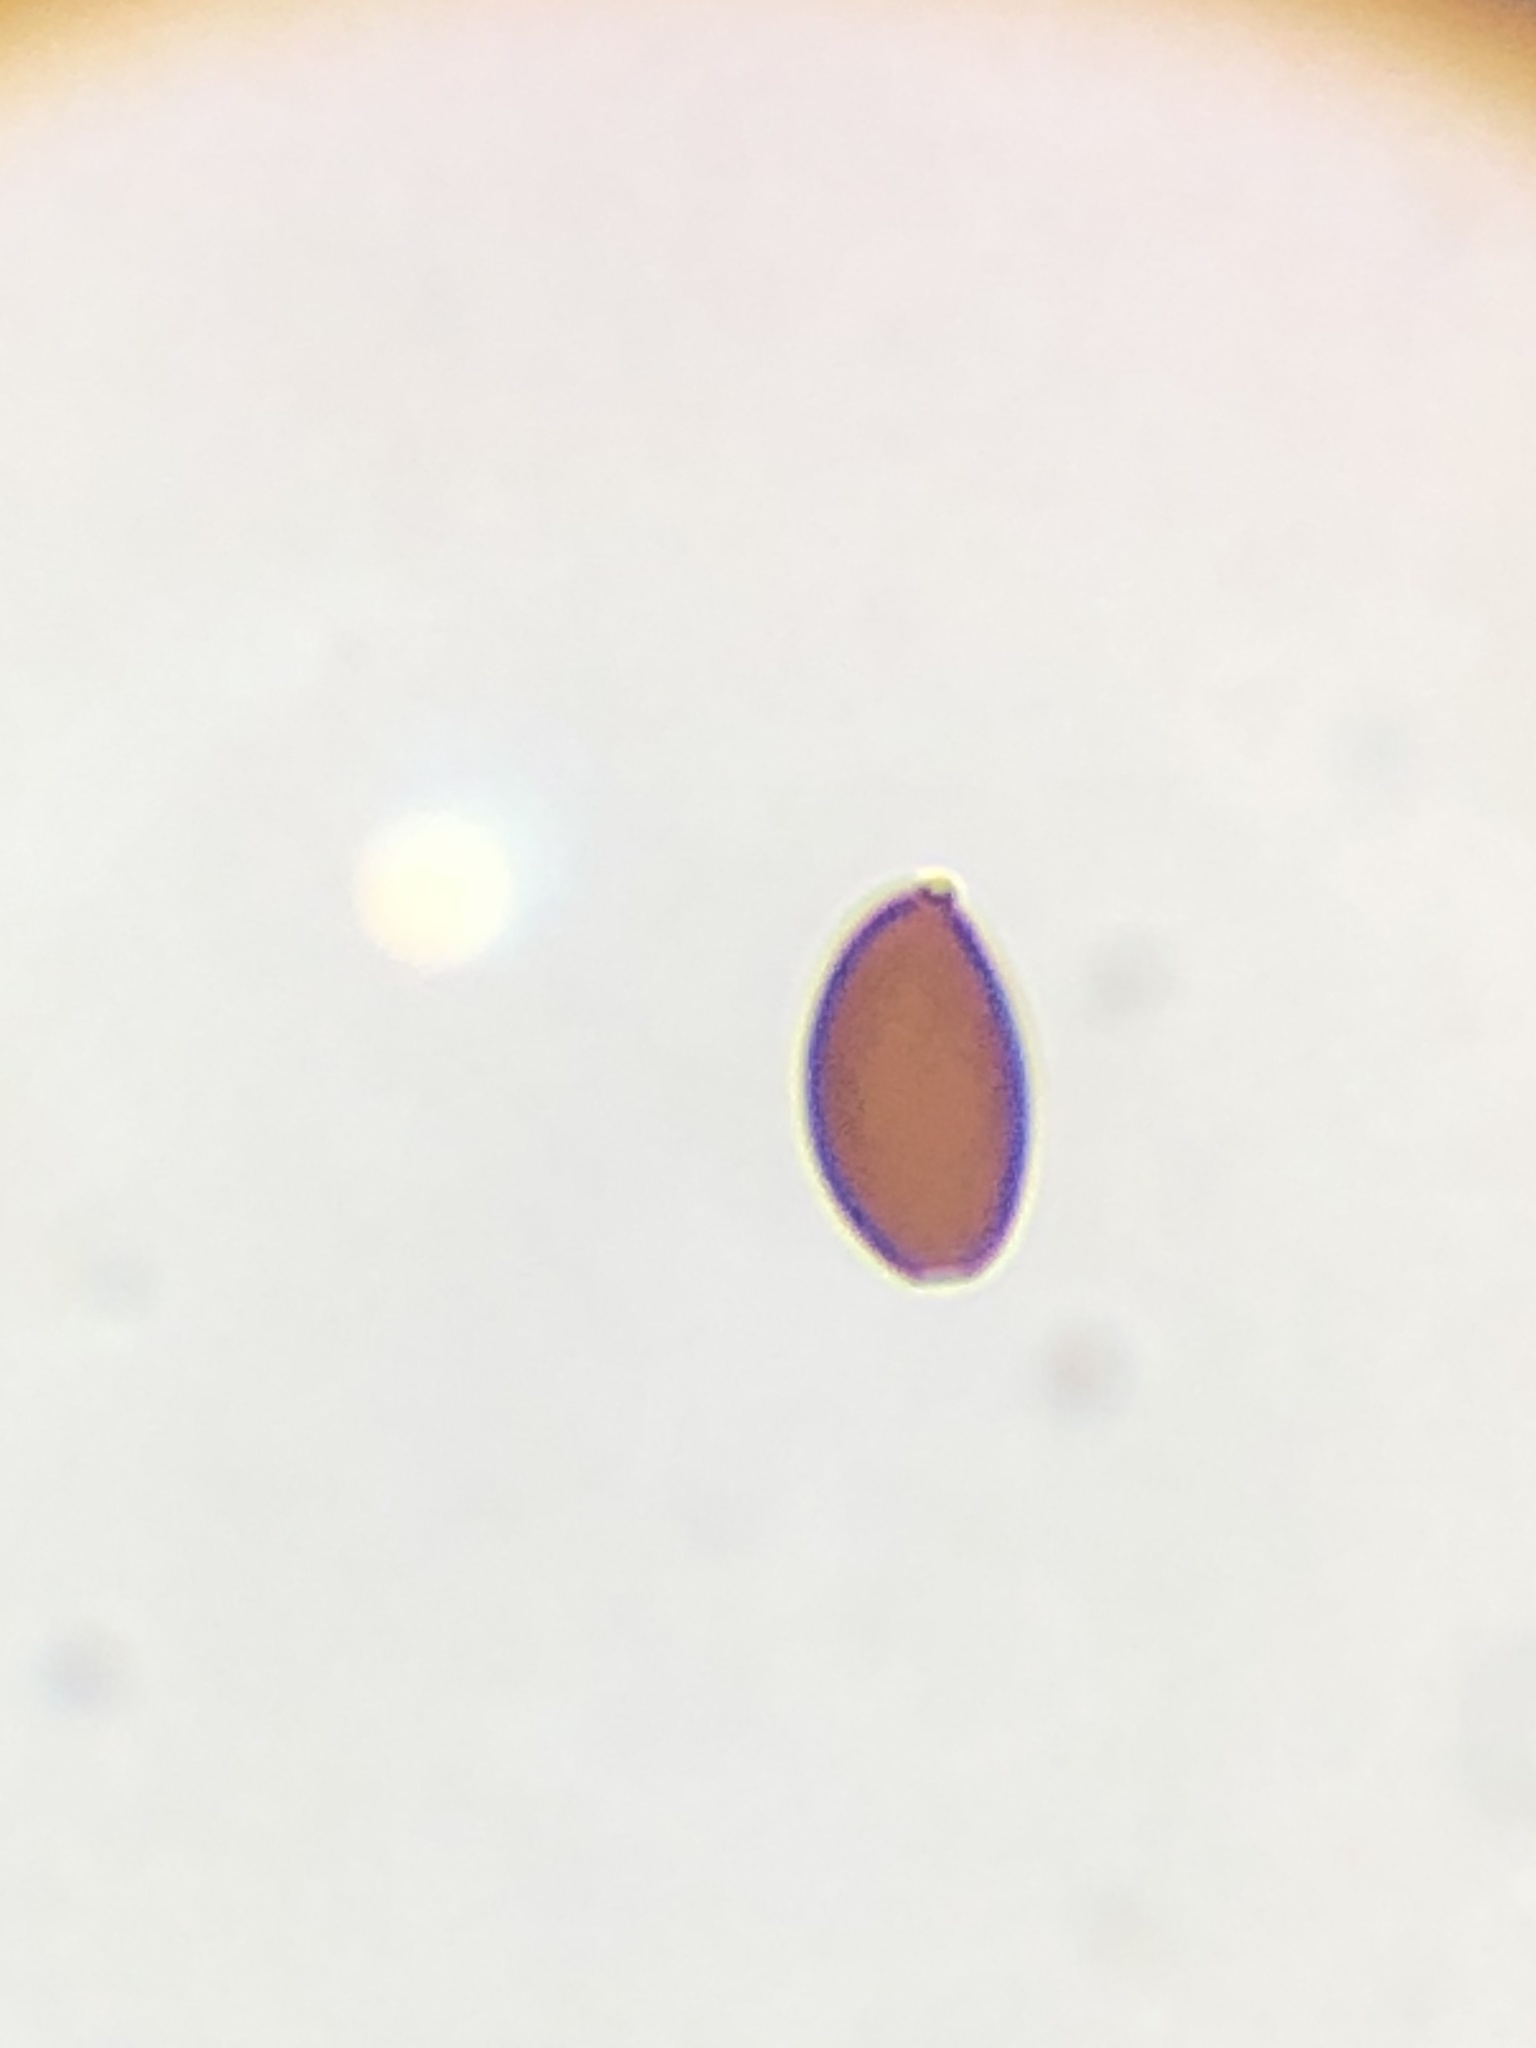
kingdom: Fungi
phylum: Basidiomycota
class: Agaricomycetes
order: Agaricales
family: Psathyrellaceae
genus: Psathyrella
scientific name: Psathyrella longipes
